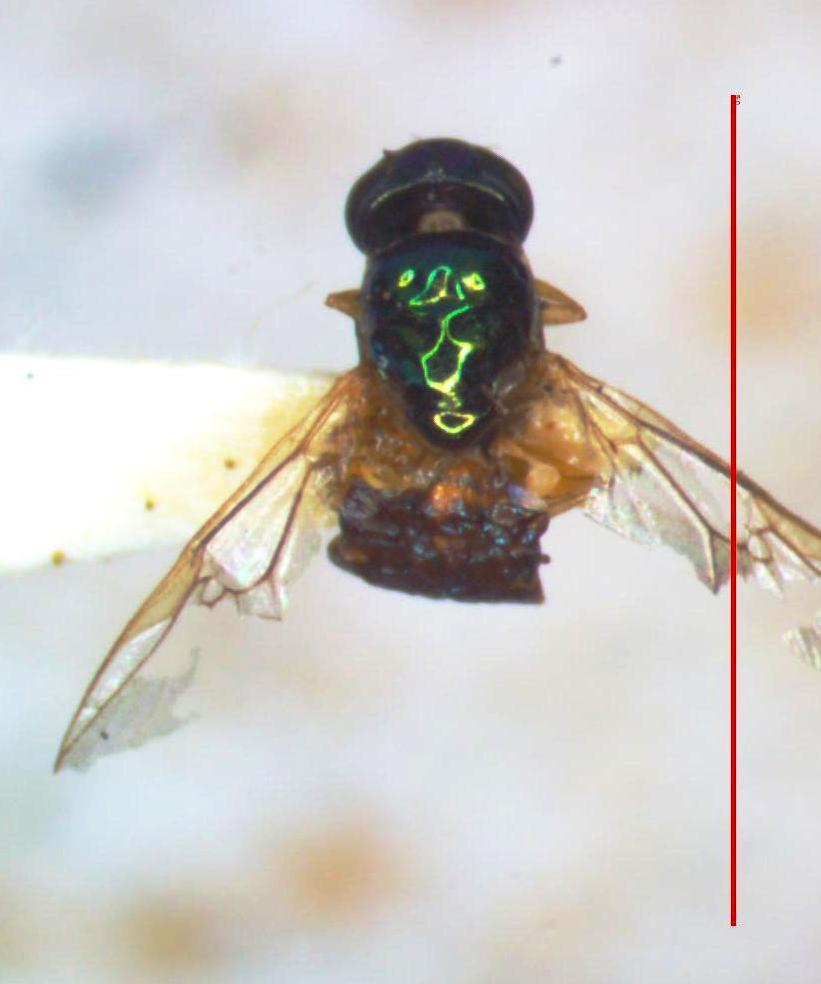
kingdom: Animalia
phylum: Arthropoda
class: Insecta
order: Diptera
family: Stratiomyidae
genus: Microchrysa
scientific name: Microchrysa bicolor
